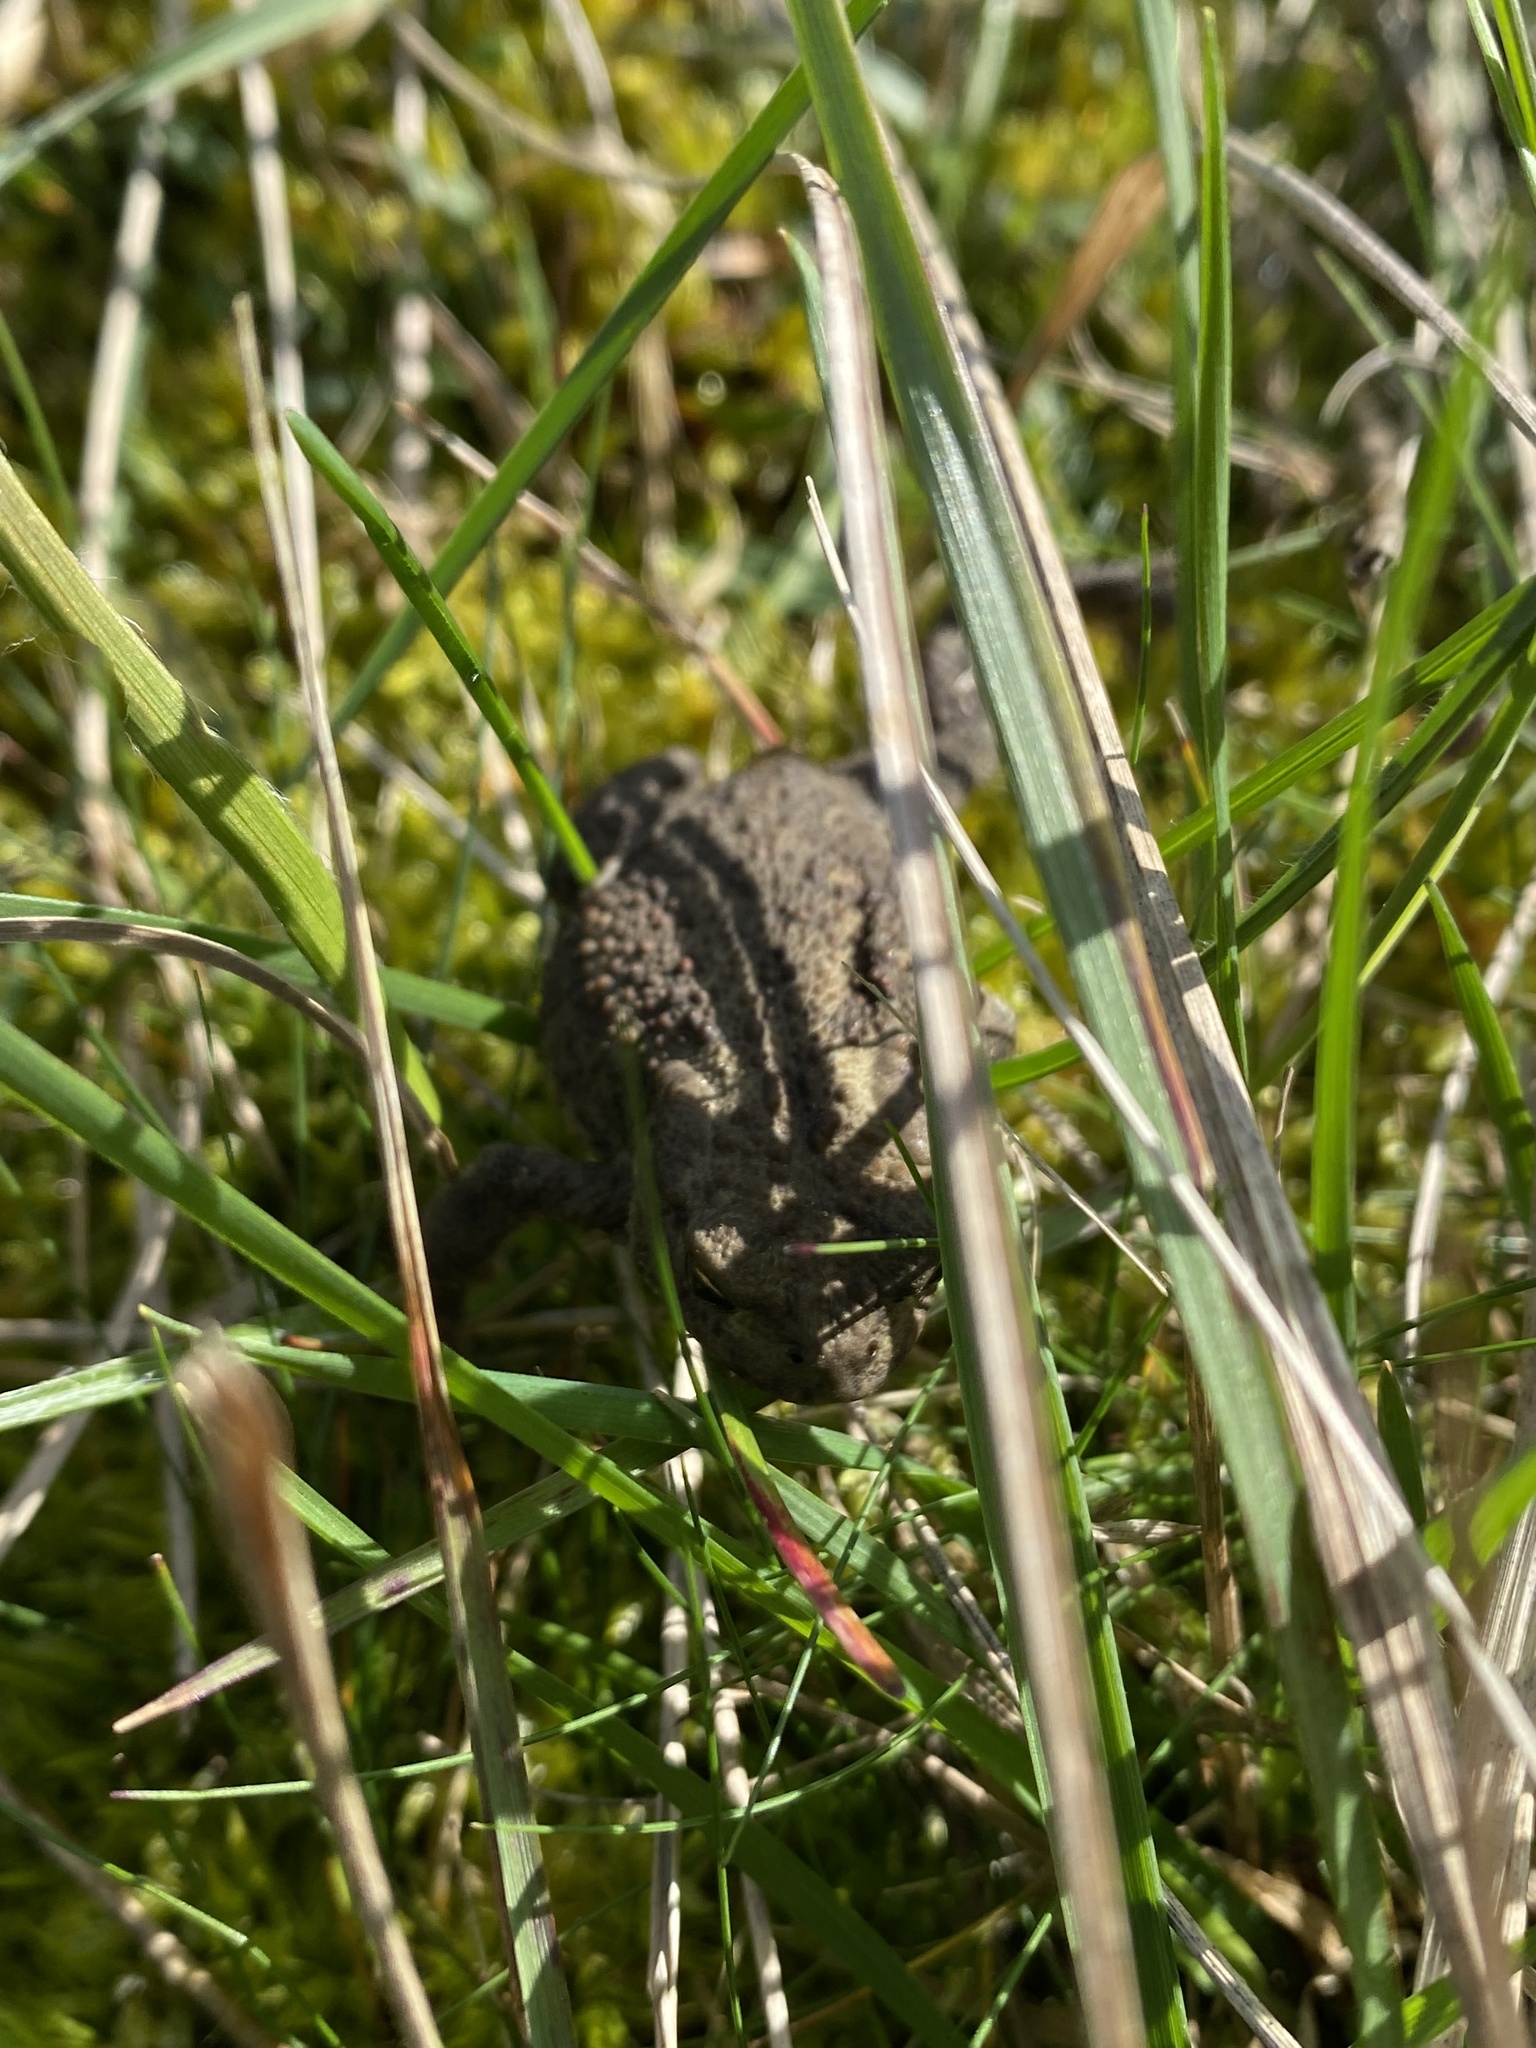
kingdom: Animalia
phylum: Chordata
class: Amphibia
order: Anura
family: Bufonidae
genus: Bufo
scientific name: Bufo bufo
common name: Common toad
